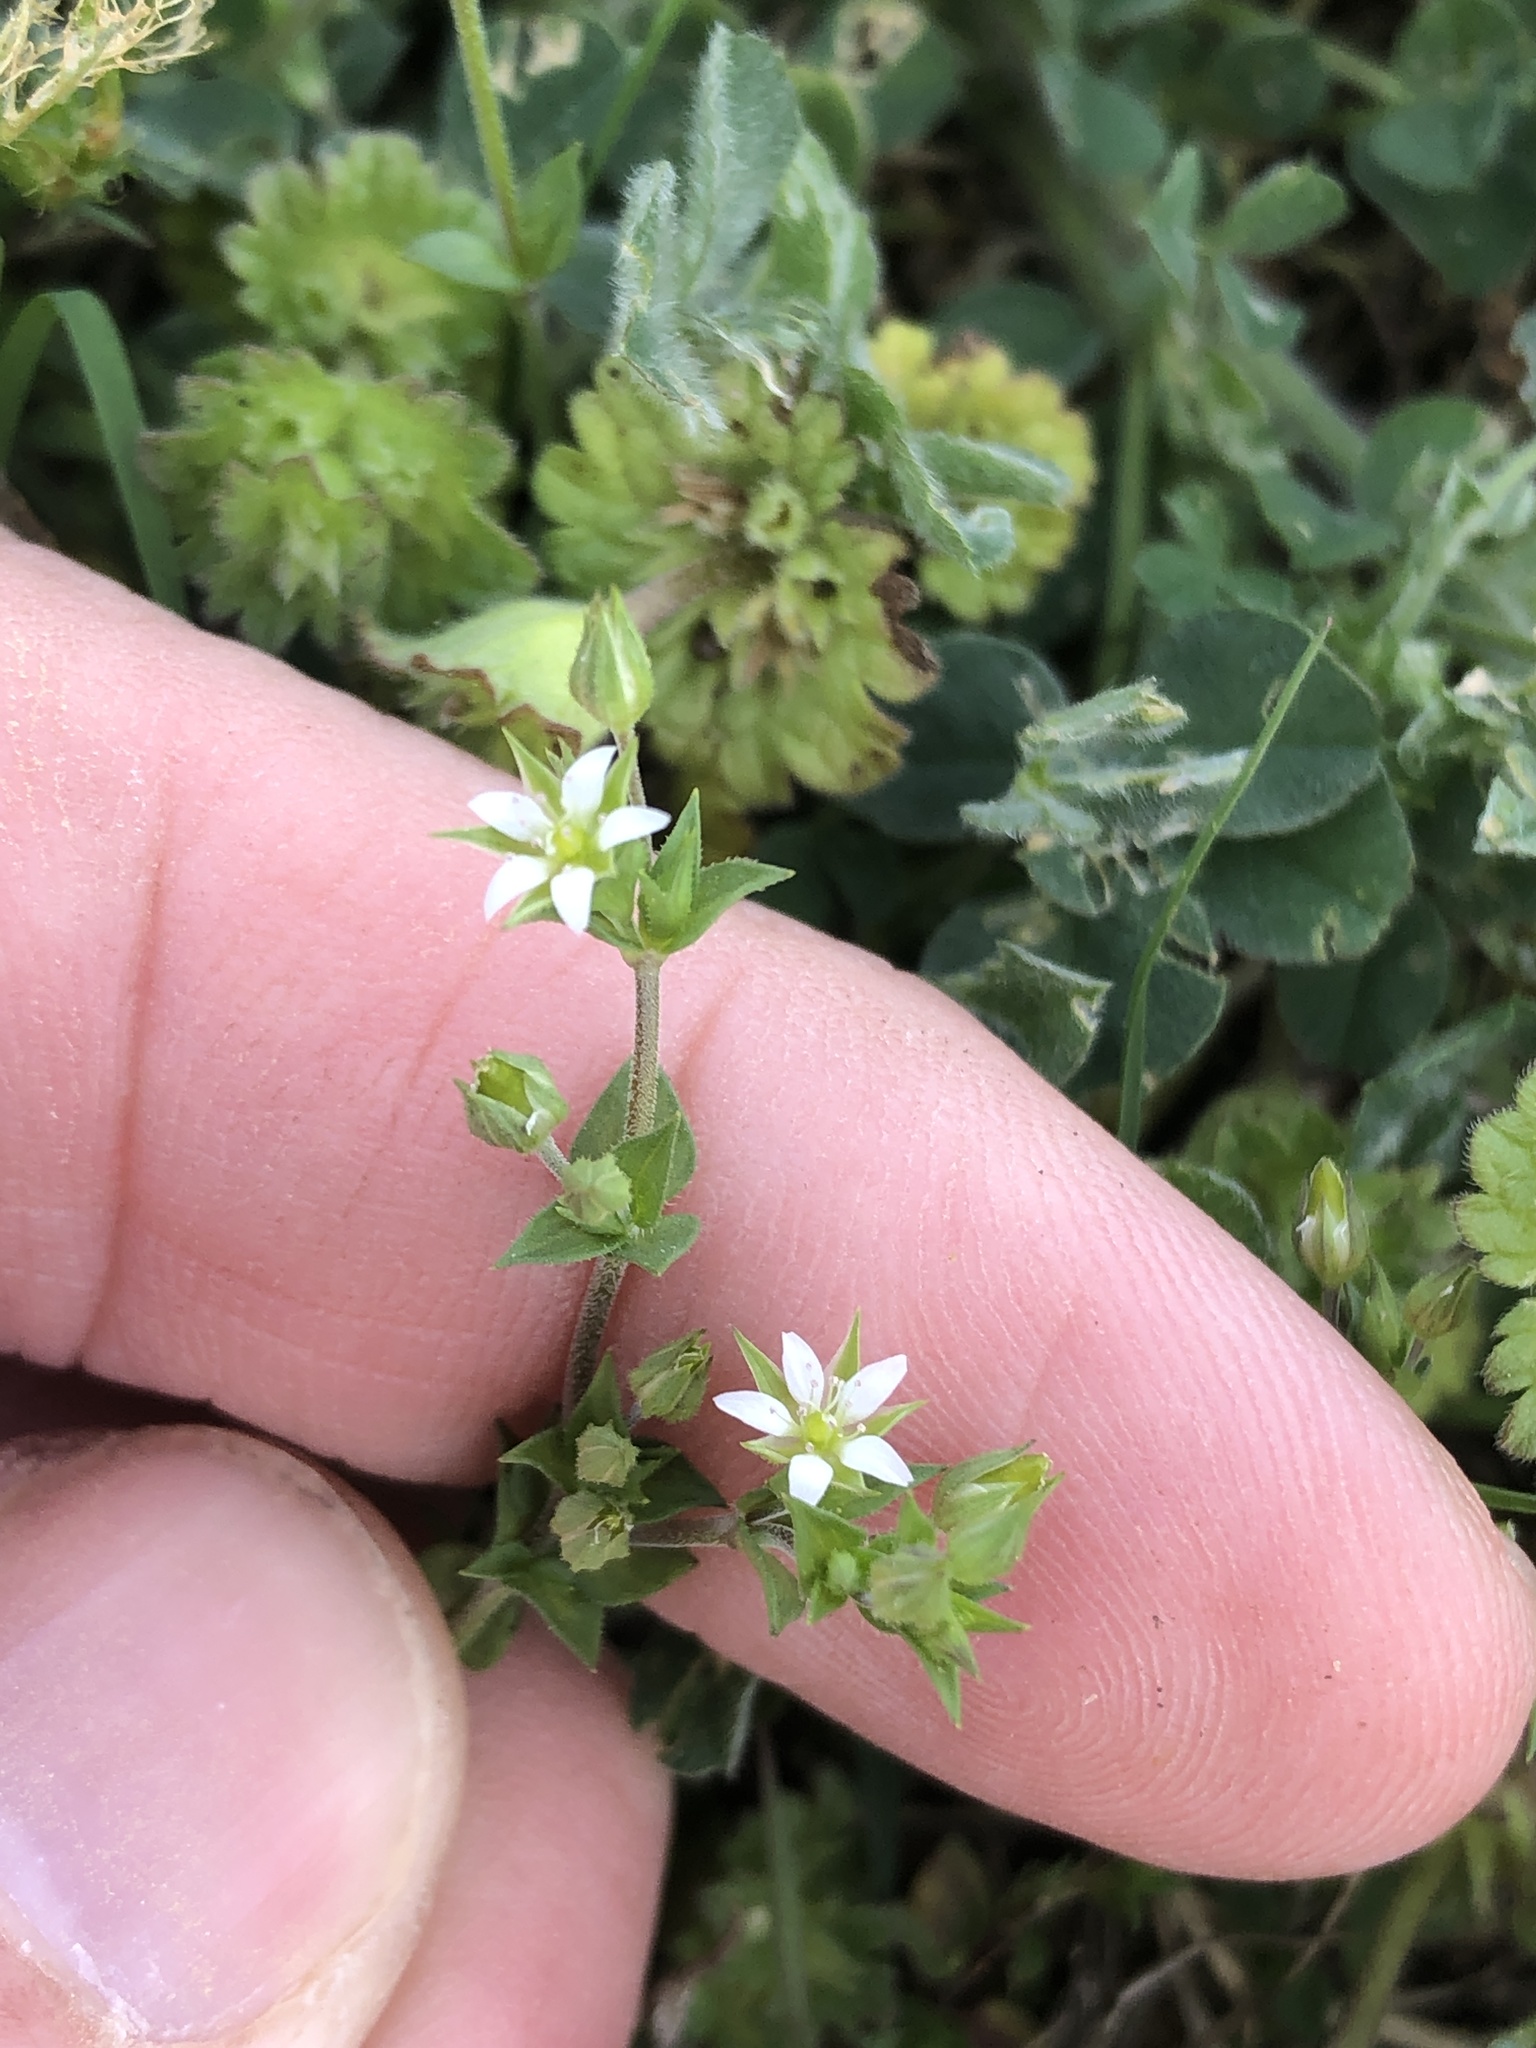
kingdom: Plantae
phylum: Tracheophyta
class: Magnoliopsida
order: Caryophyllales
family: Caryophyllaceae
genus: Arenaria
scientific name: Arenaria serpyllifolia
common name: Thyme-leaved sandwort
